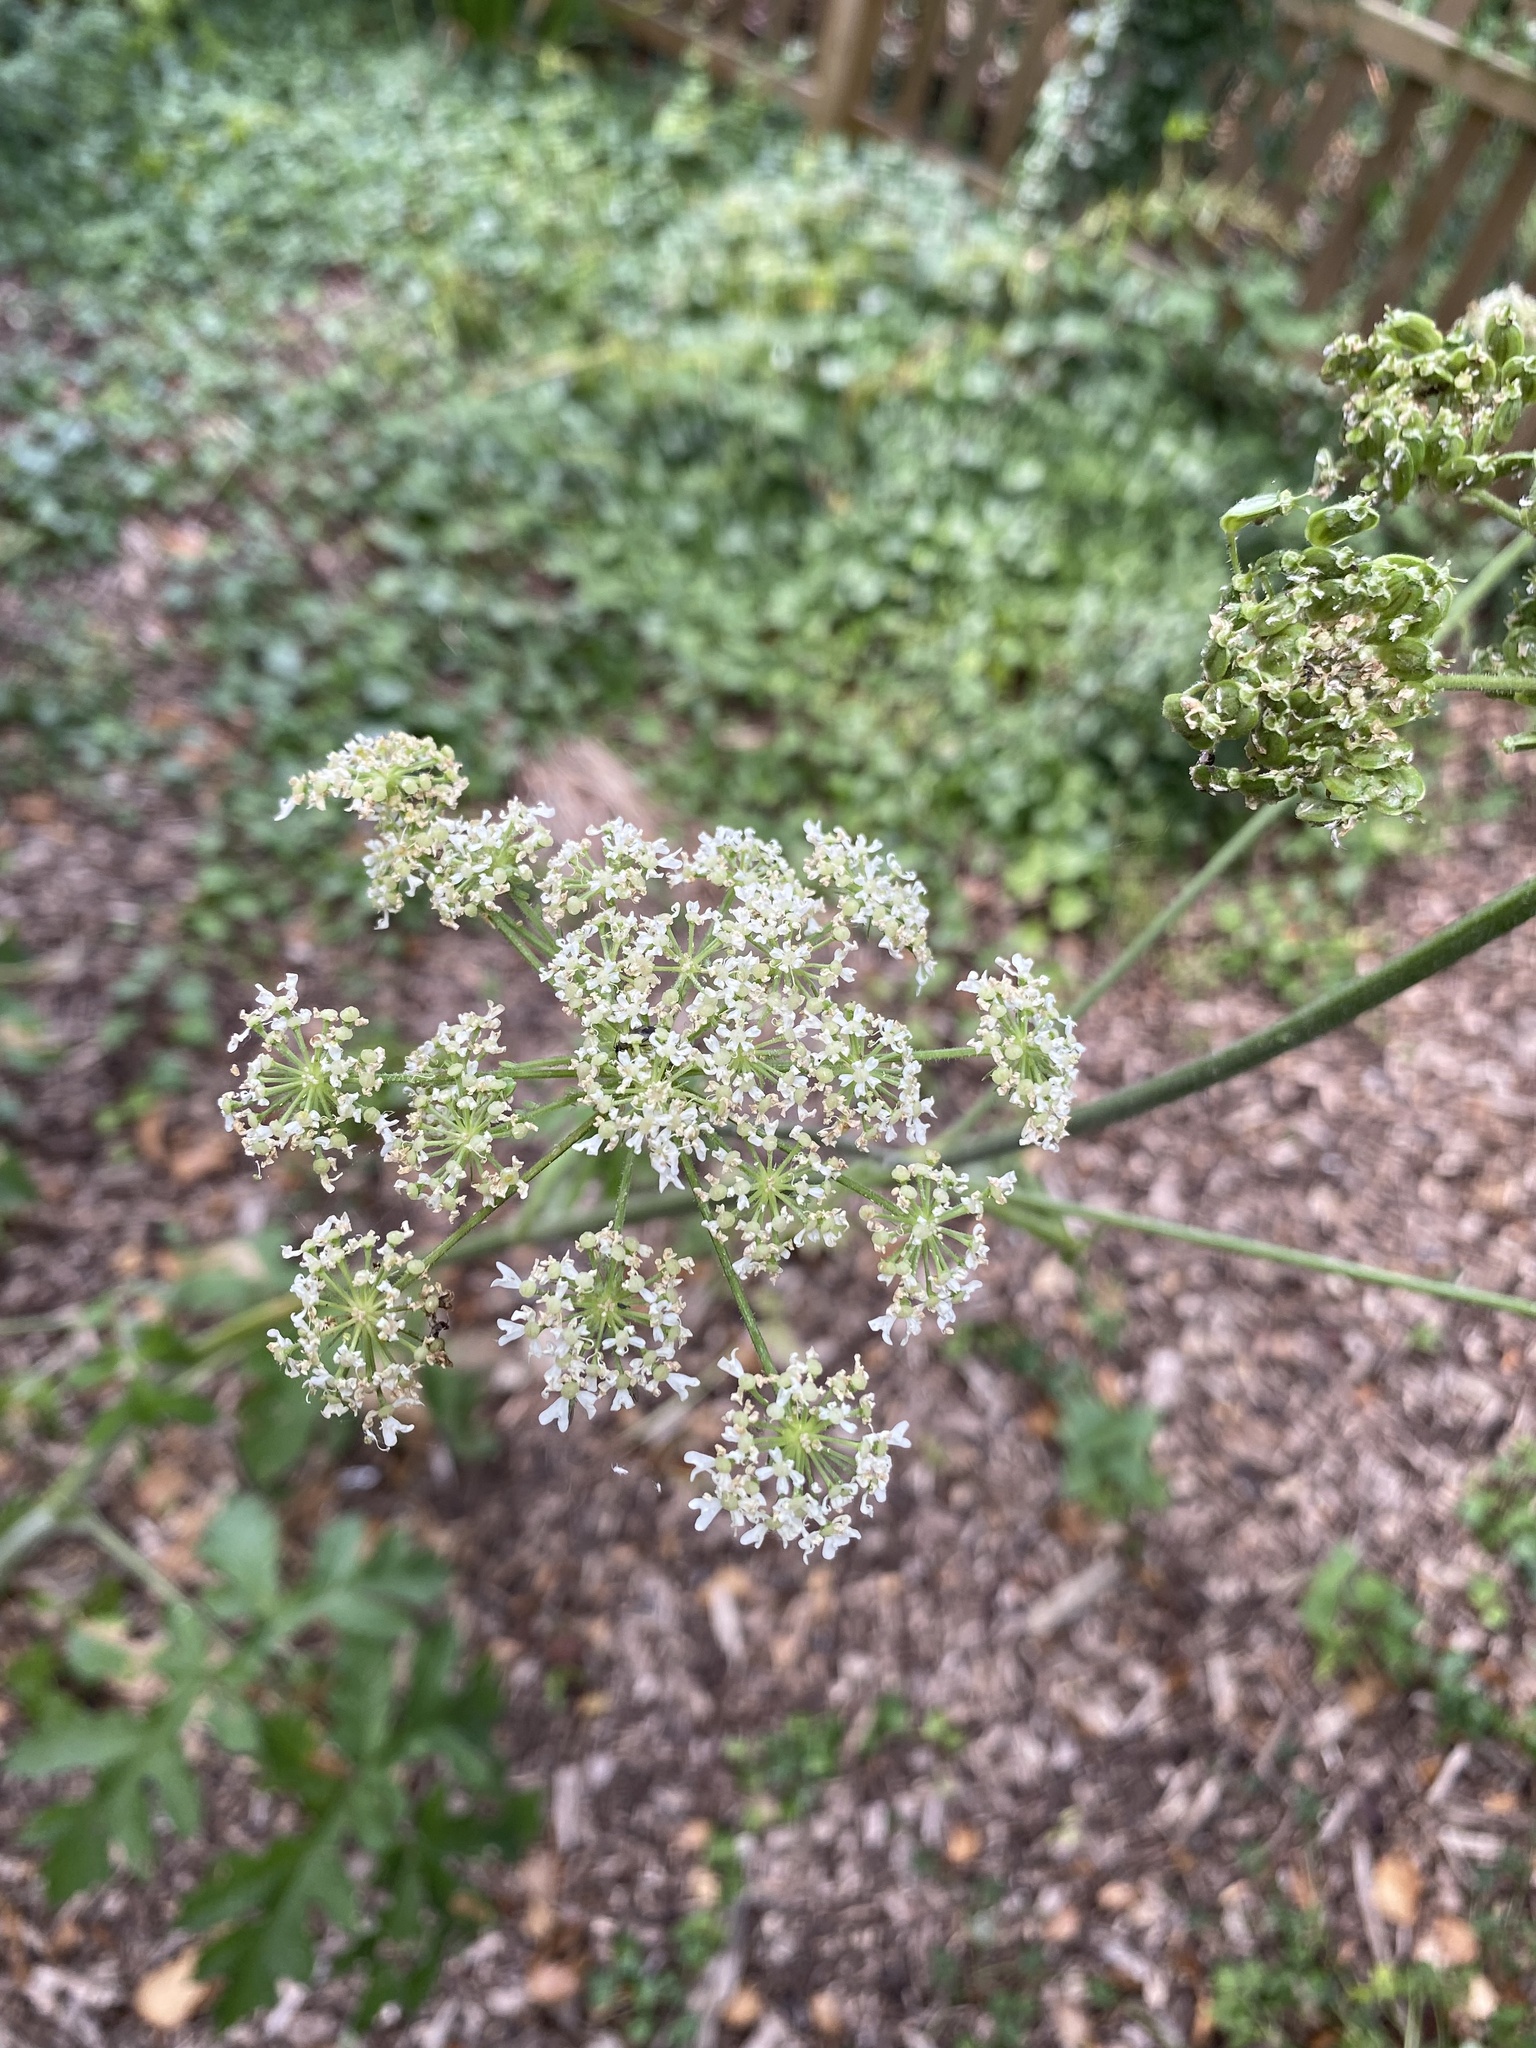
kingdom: Plantae
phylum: Tracheophyta
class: Magnoliopsida
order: Apiales
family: Apiaceae
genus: Heracleum
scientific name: Heracleum sphondylium
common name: Hogweed
